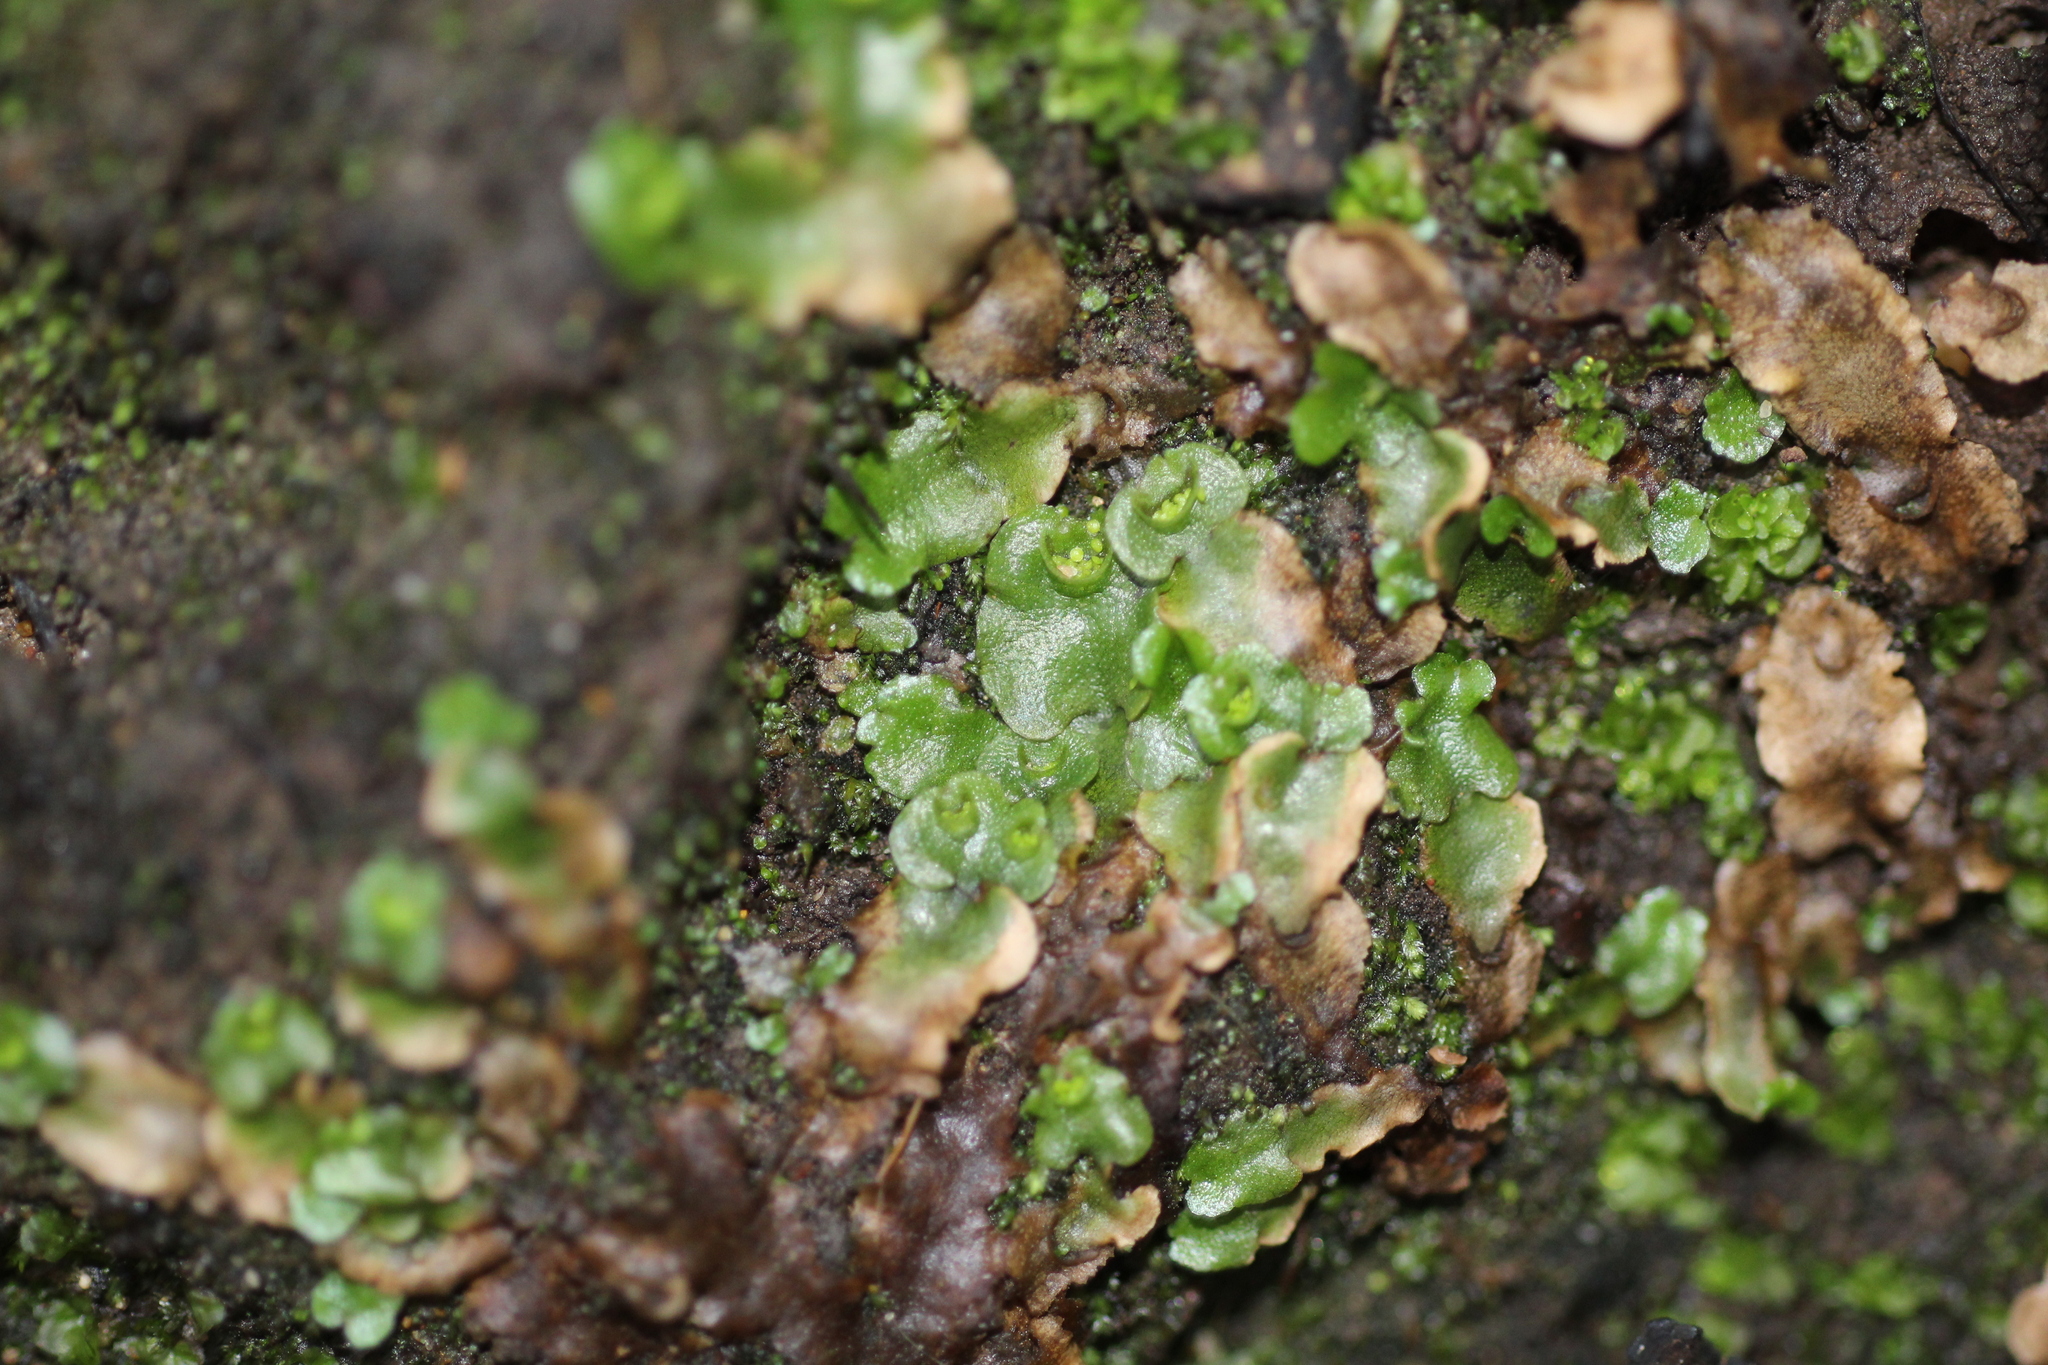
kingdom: Plantae
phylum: Marchantiophyta
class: Marchantiopsida
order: Lunulariales
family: Lunulariaceae
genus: Lunularia
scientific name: Lunularia cruciata
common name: Crescent-cup liverwort
